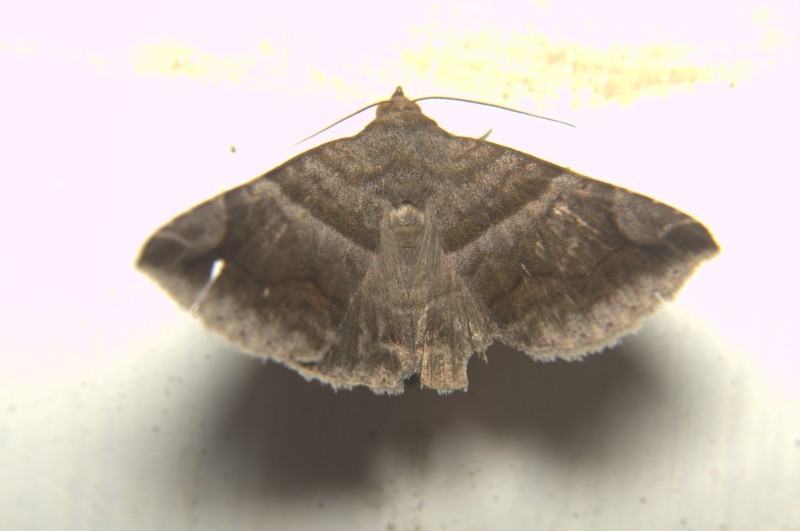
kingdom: Animalia
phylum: Arthropoda
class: Insecta
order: Lepidoptera
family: Erebidae
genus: Buzara
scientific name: Buzara onelia
